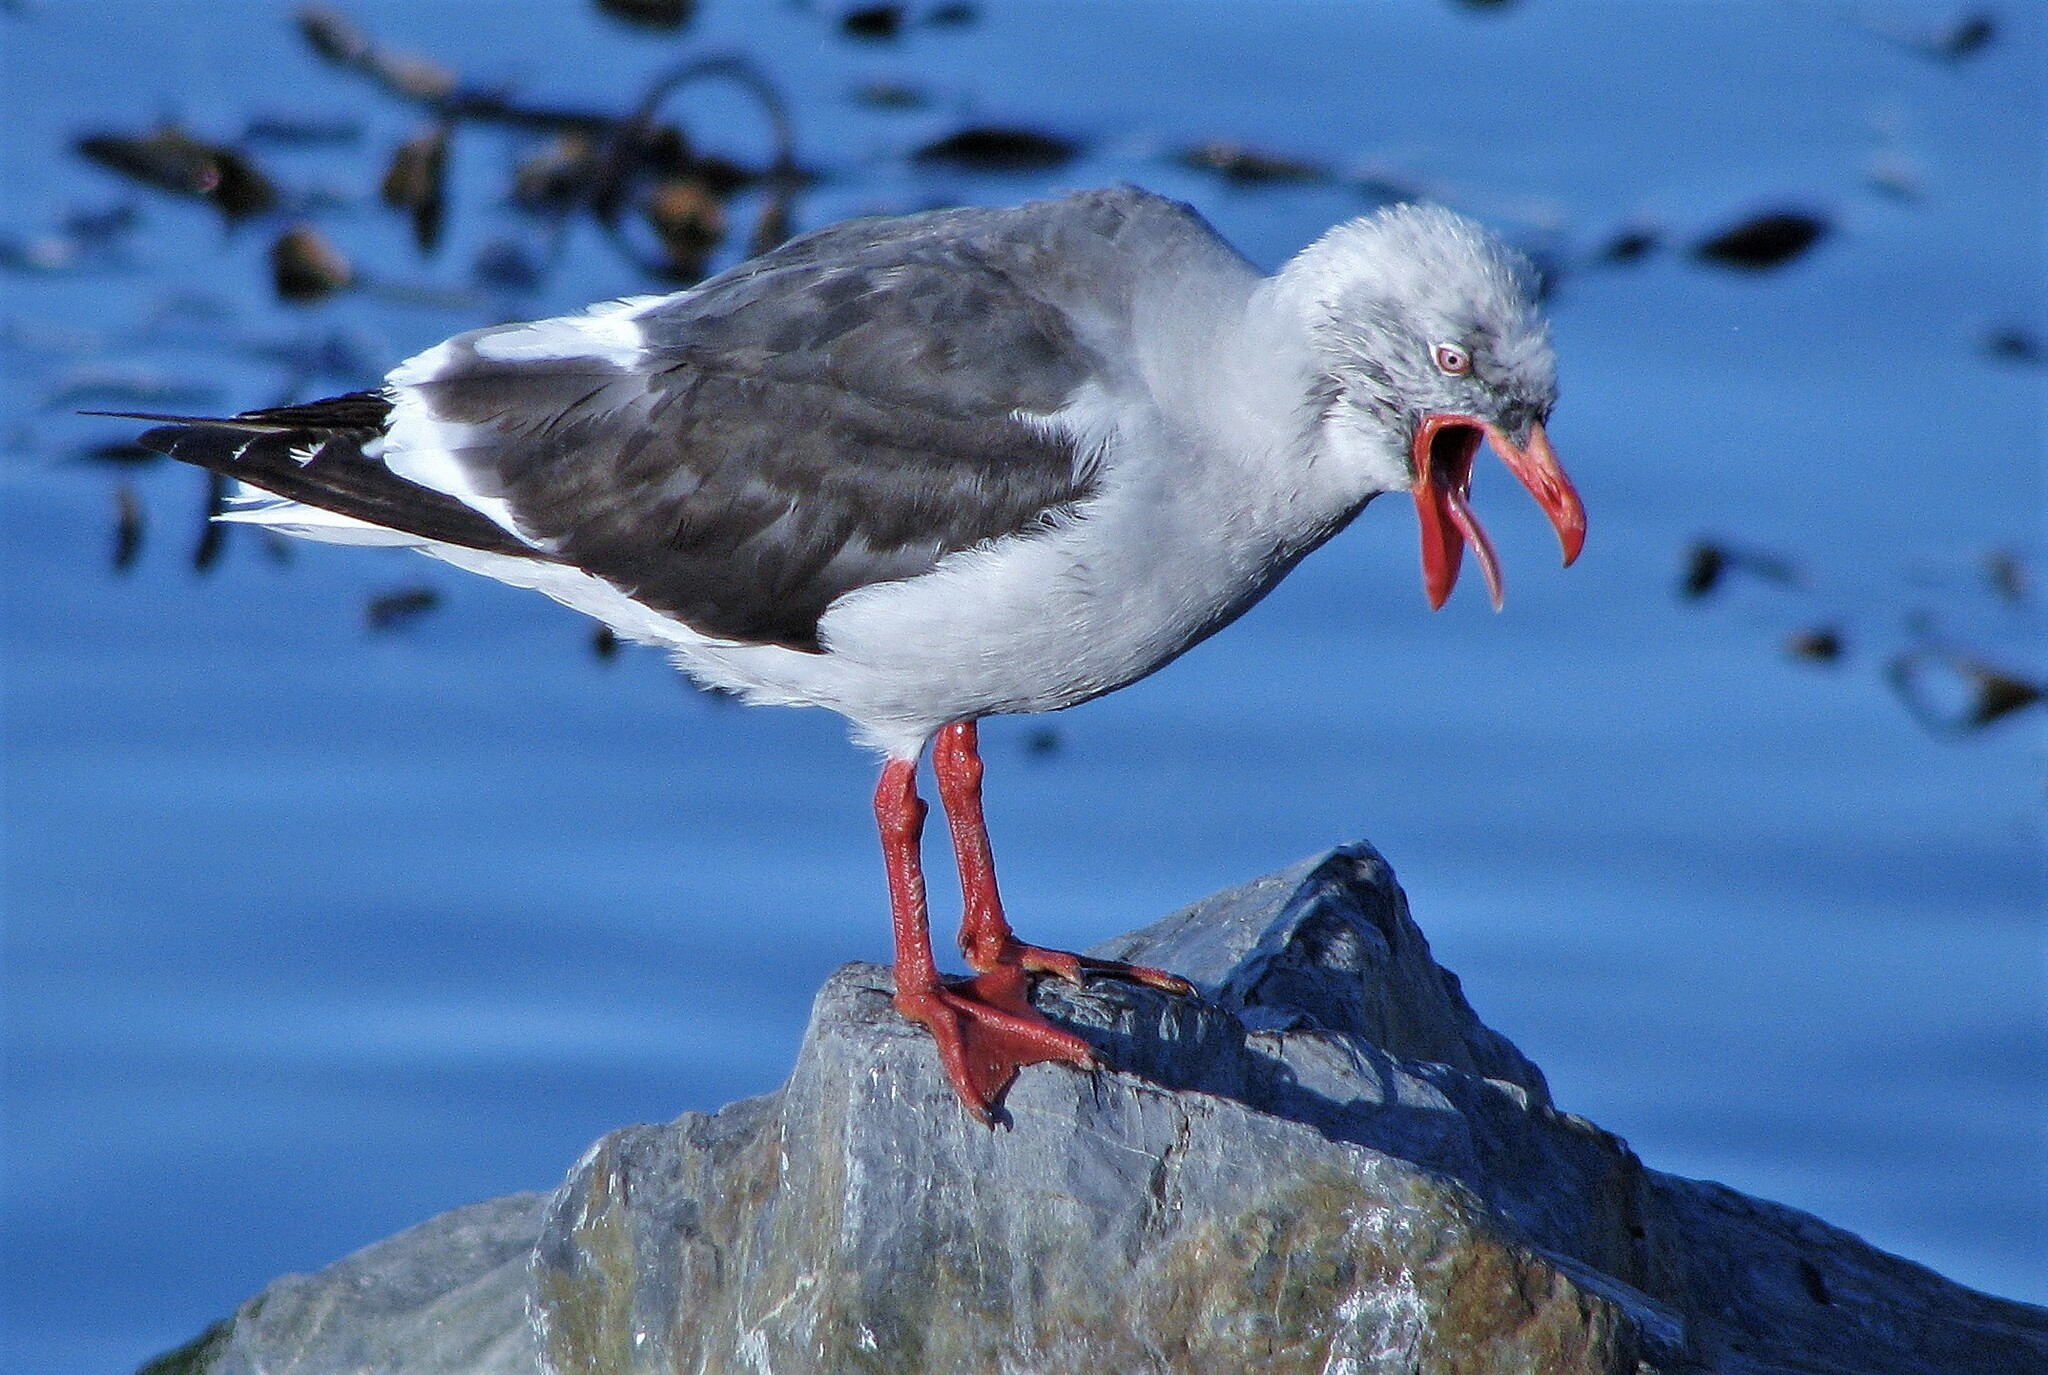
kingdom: Animalia
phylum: Chordata
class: Aves
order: Charadriiformes
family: Laridae
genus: Leucophaeus
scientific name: Leucophaeus scoresbii
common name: Dolphin gull
